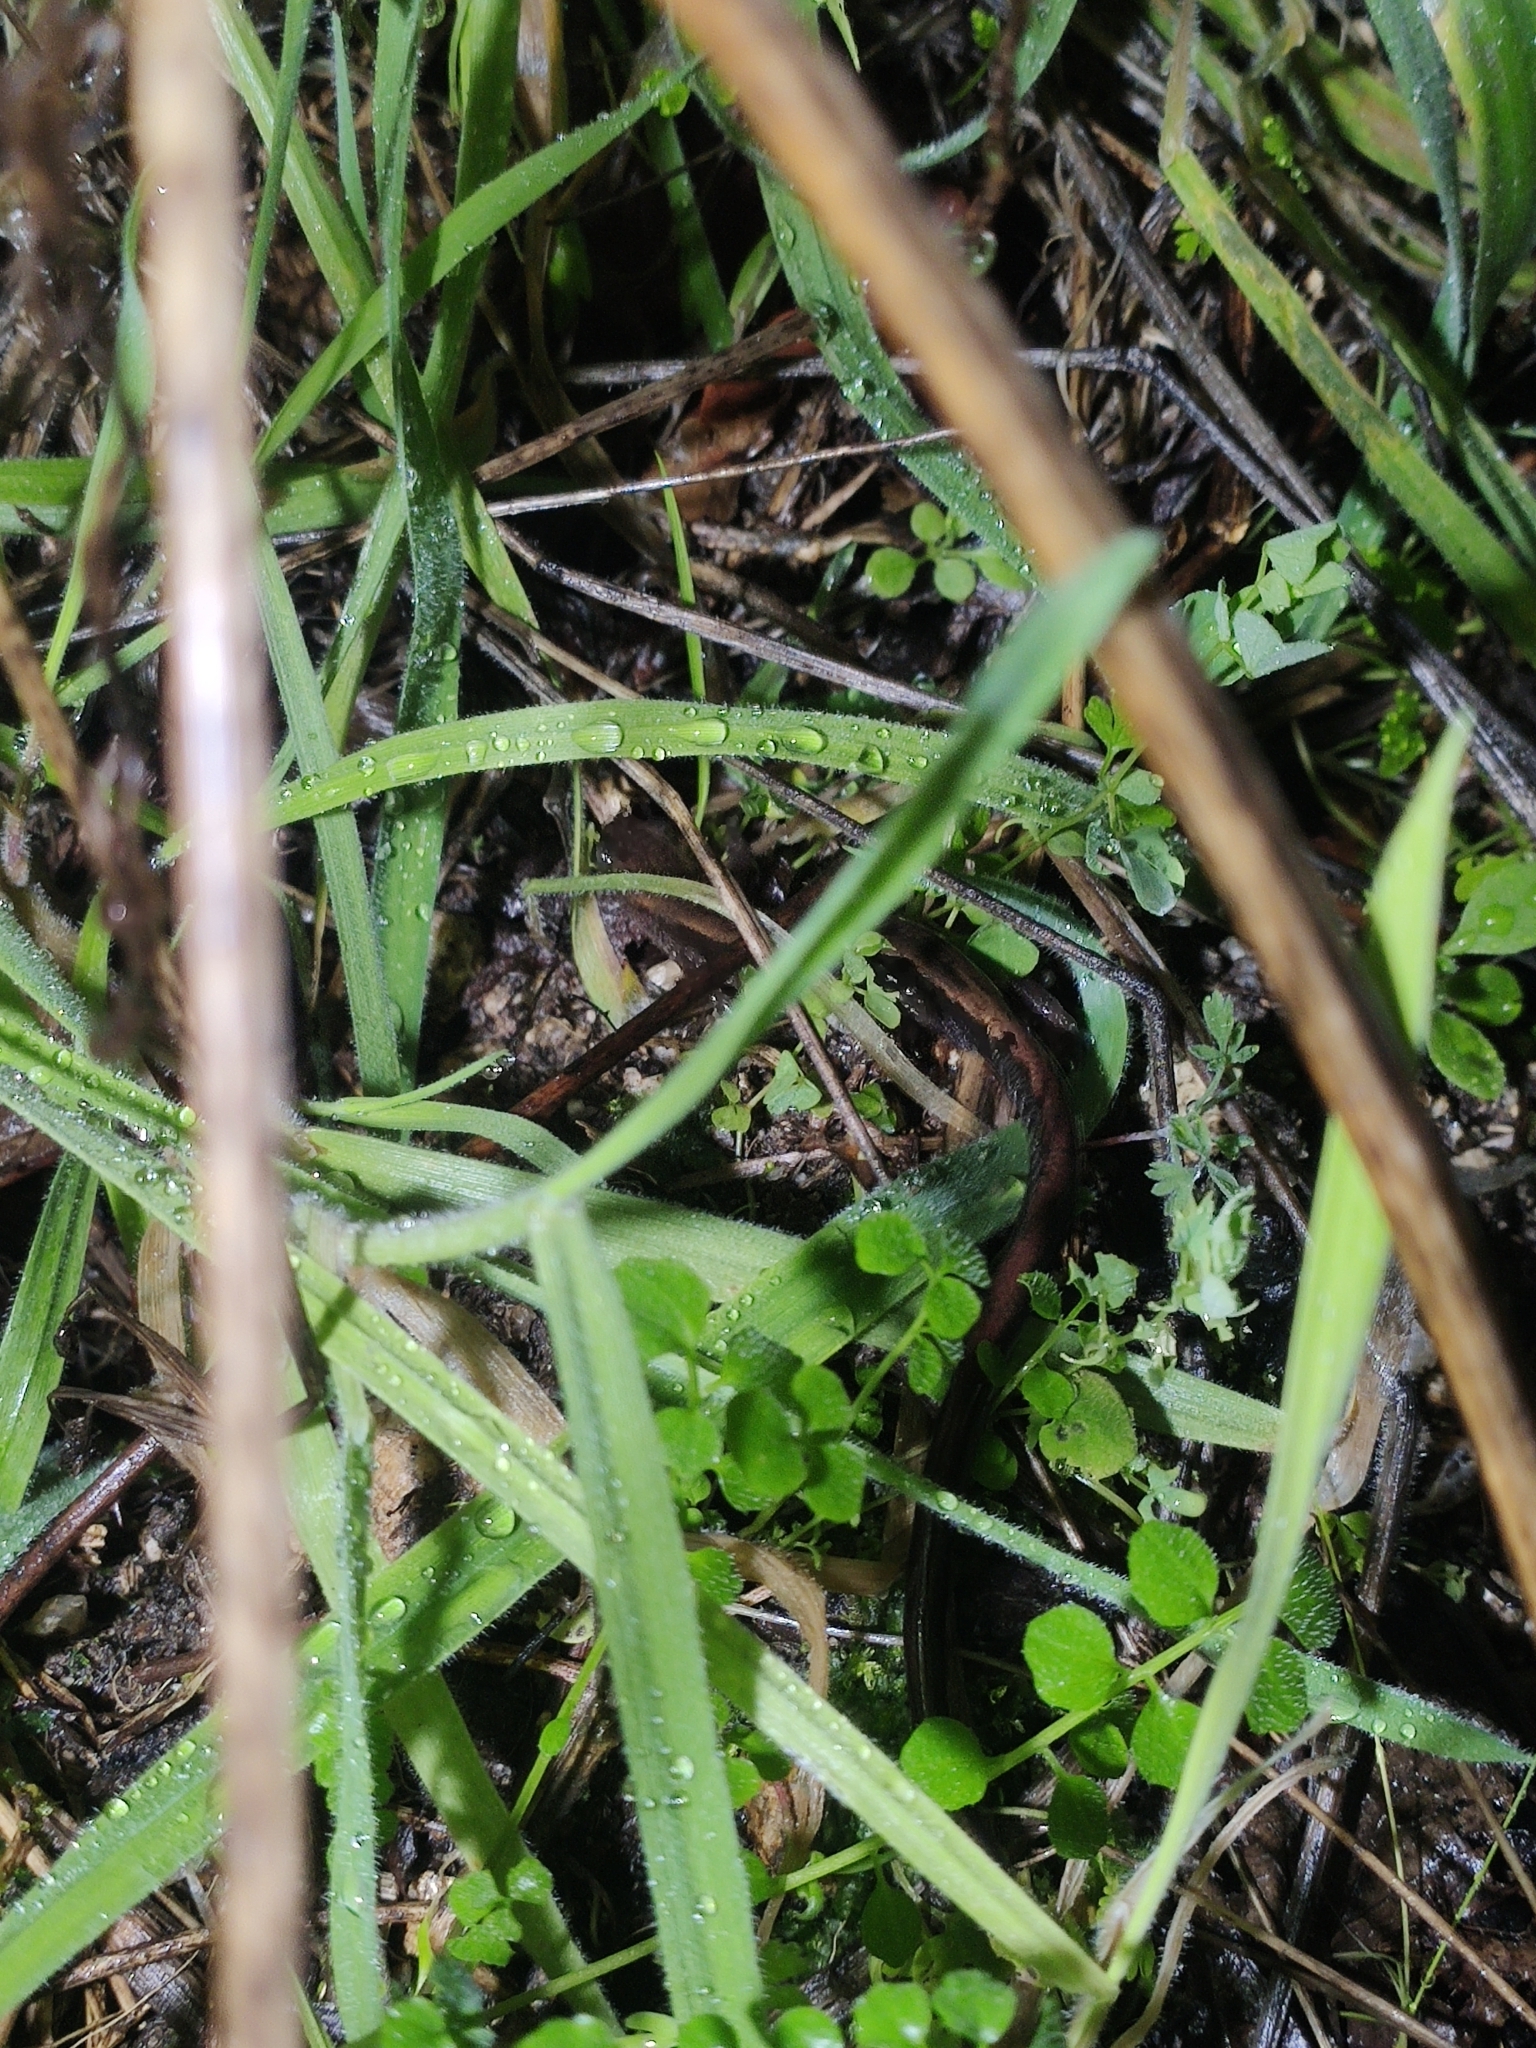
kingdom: Animalia
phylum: Chordata
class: Amphibia
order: Caudata
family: Salamandridae
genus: Chioglossa
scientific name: Chioglossa lusitanica
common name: Gold-striped salamander
